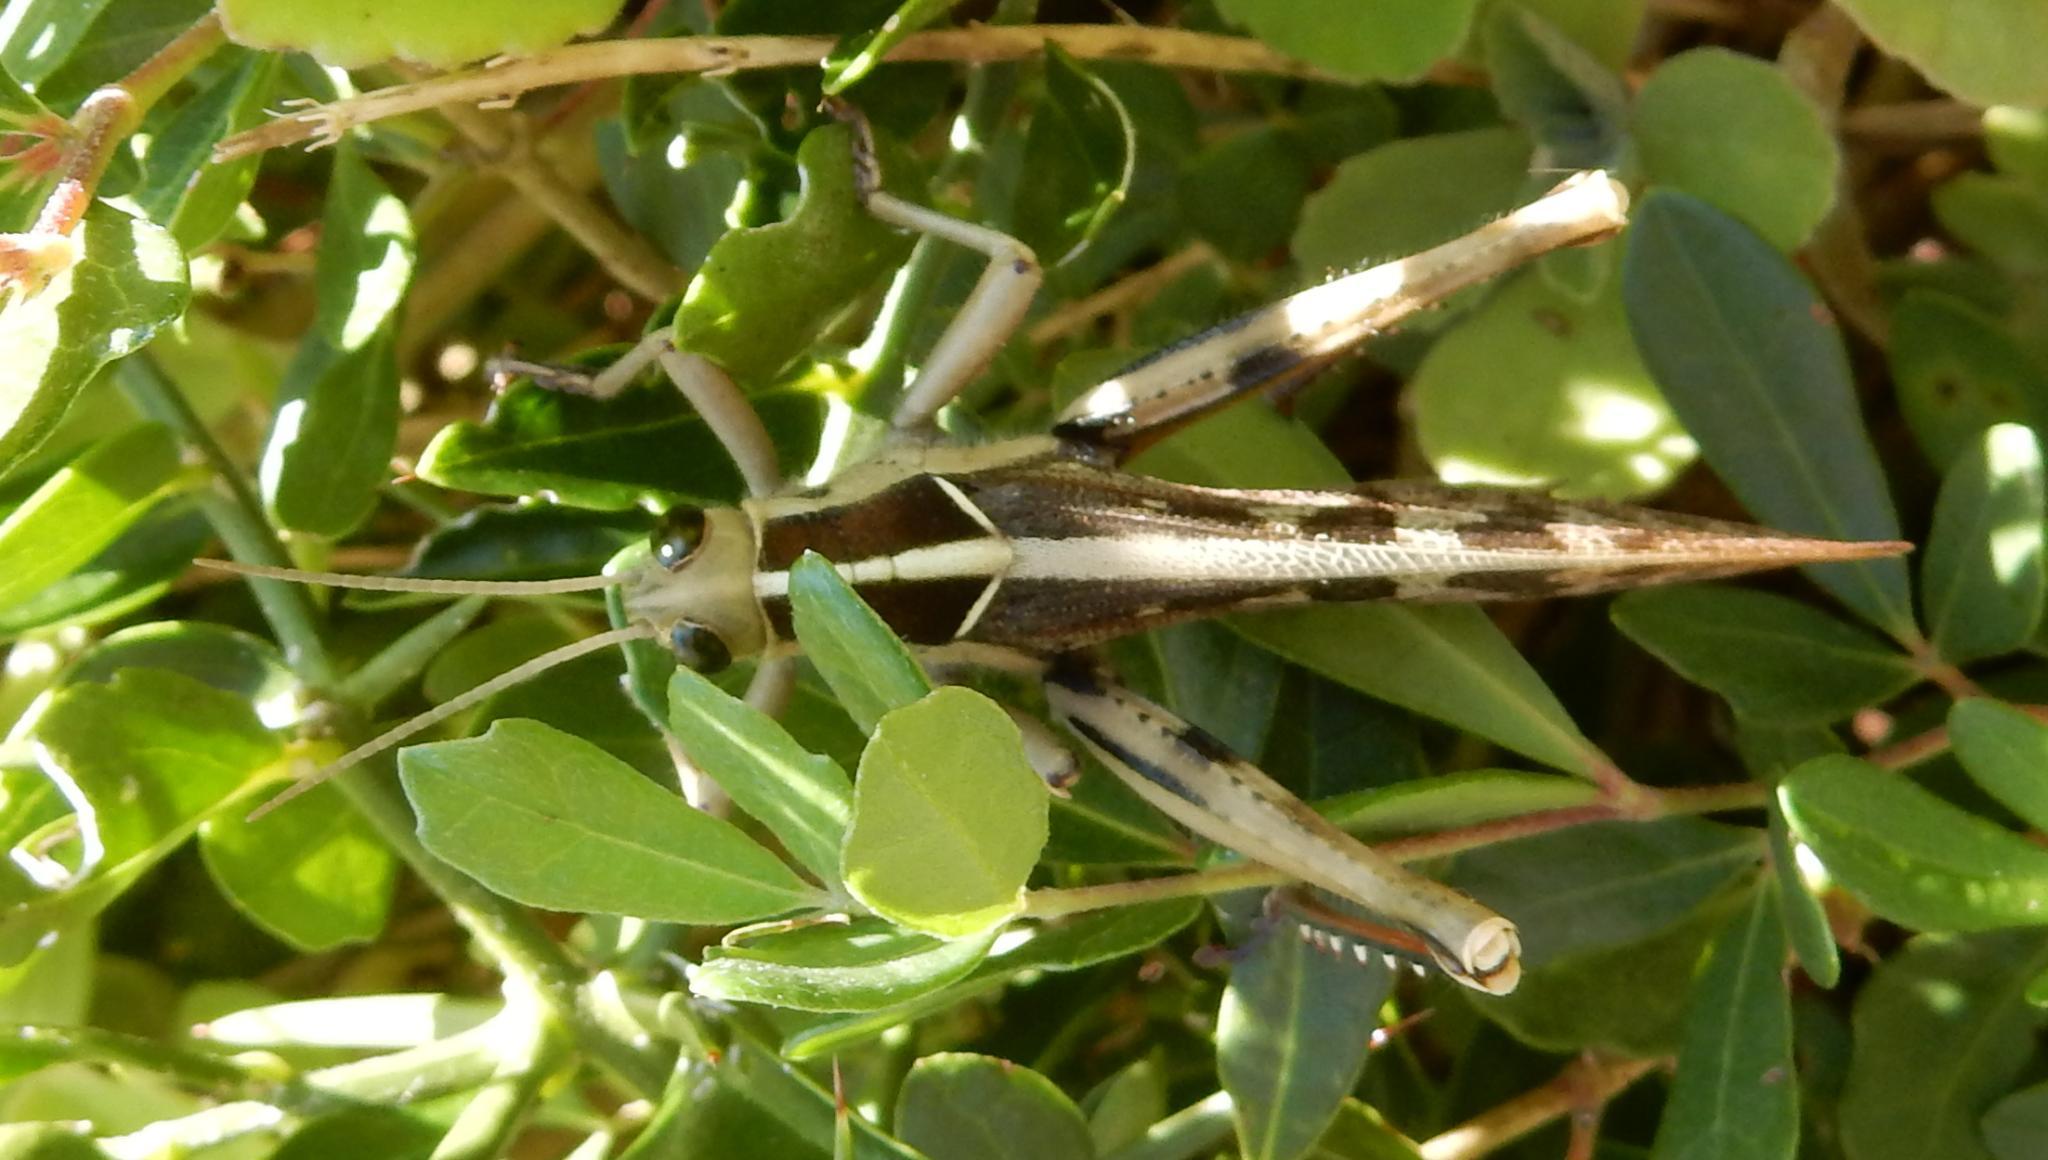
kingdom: Animalia
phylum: Arthropoda
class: Insecta
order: Orthoptera
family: Acrididae
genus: Acanthacris
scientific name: Acanthacris ruficornis
